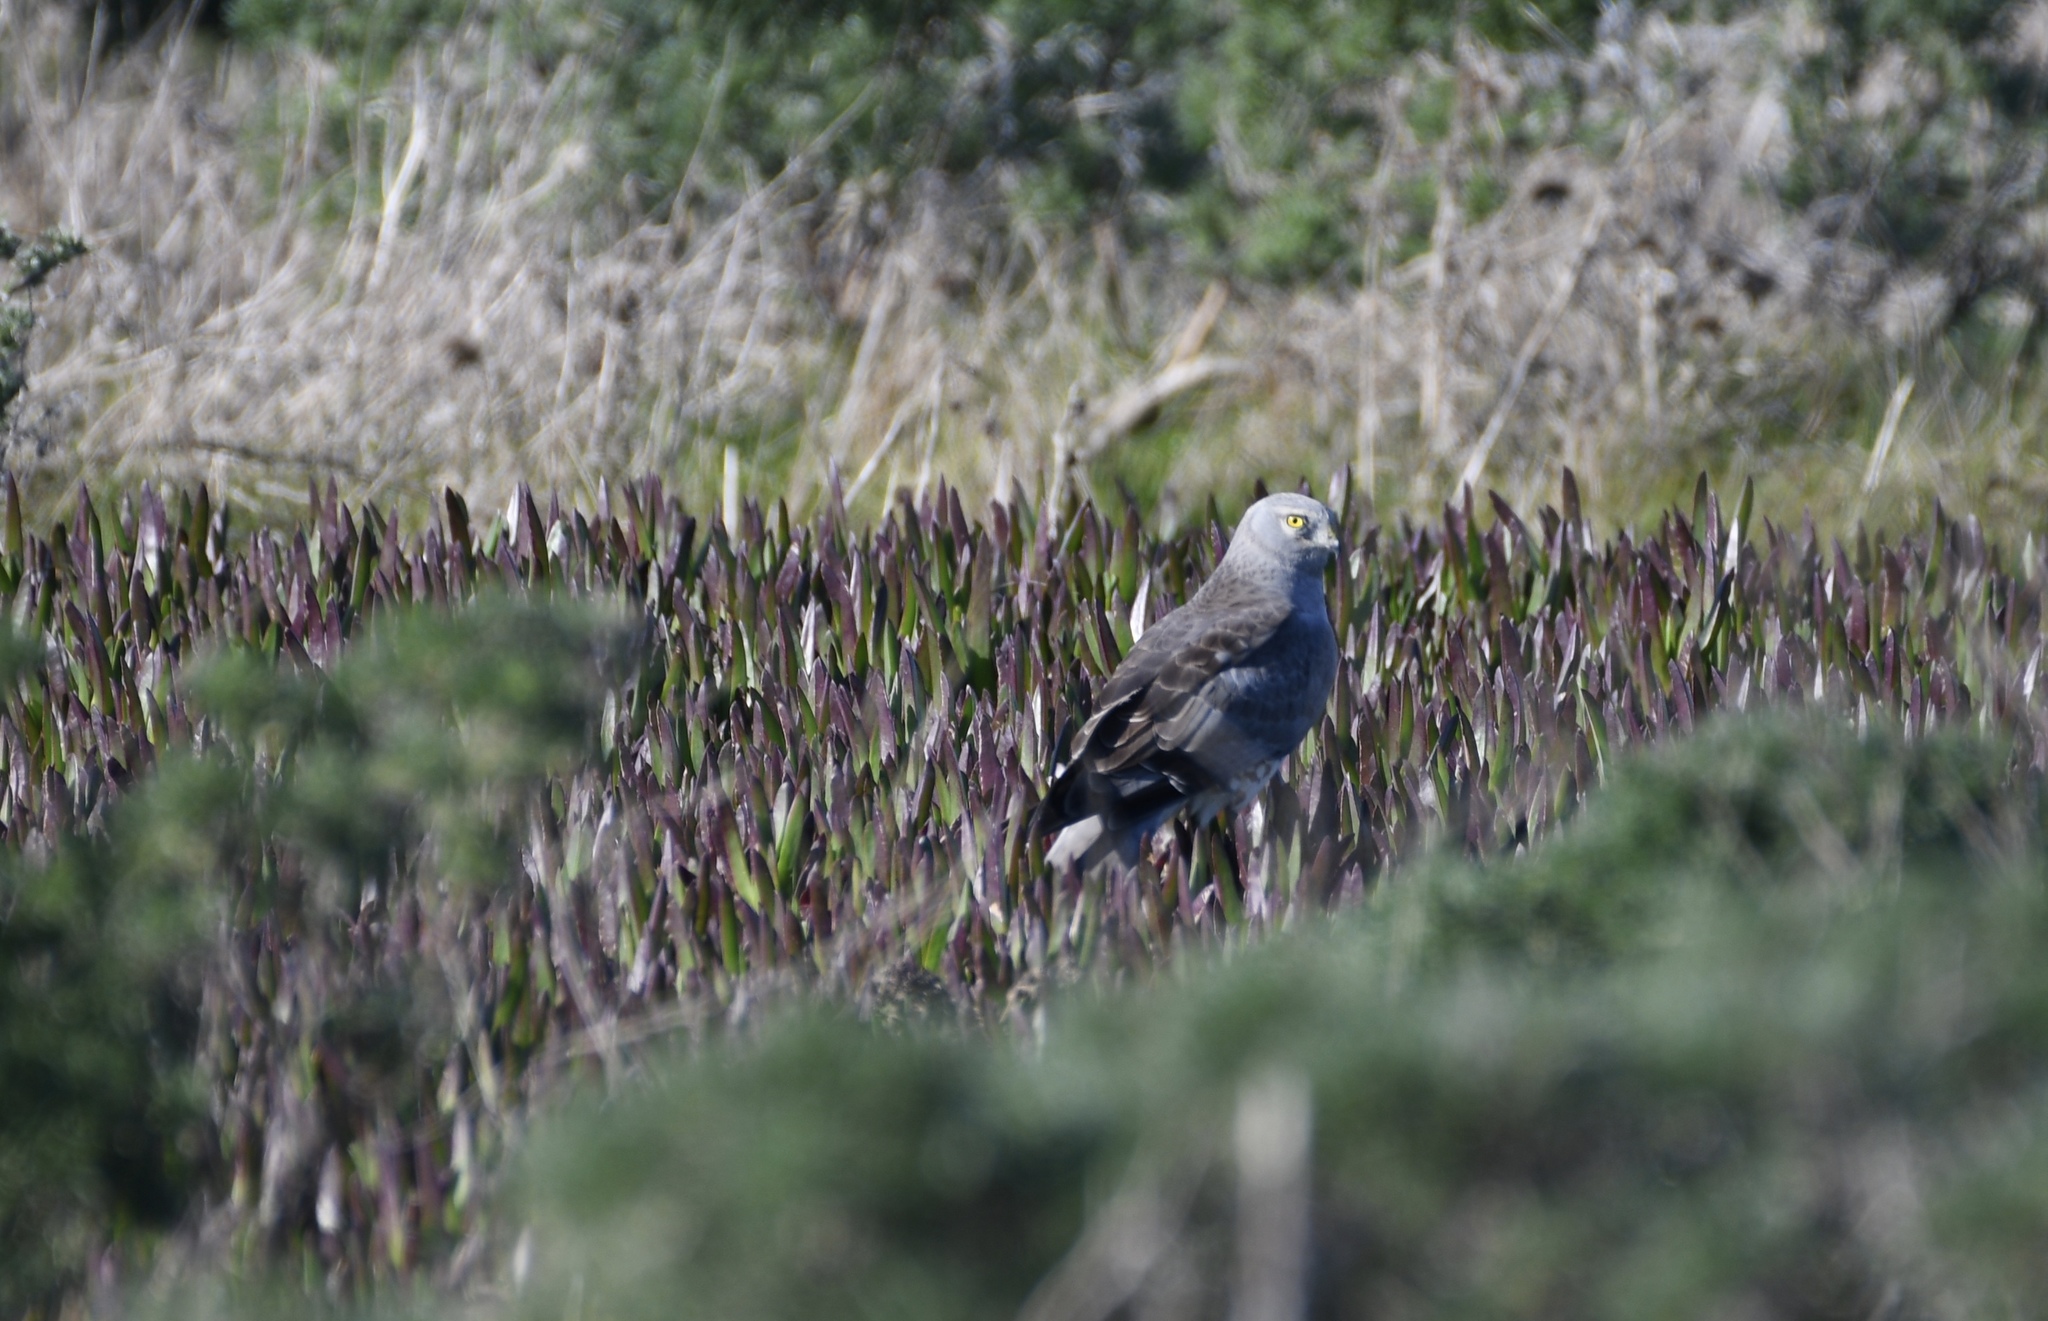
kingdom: Animalia
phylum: Chordata
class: Aves
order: Accipitriformes
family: Accipitridae
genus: Circus
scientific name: Circus cyaneus
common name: Hen harrier
